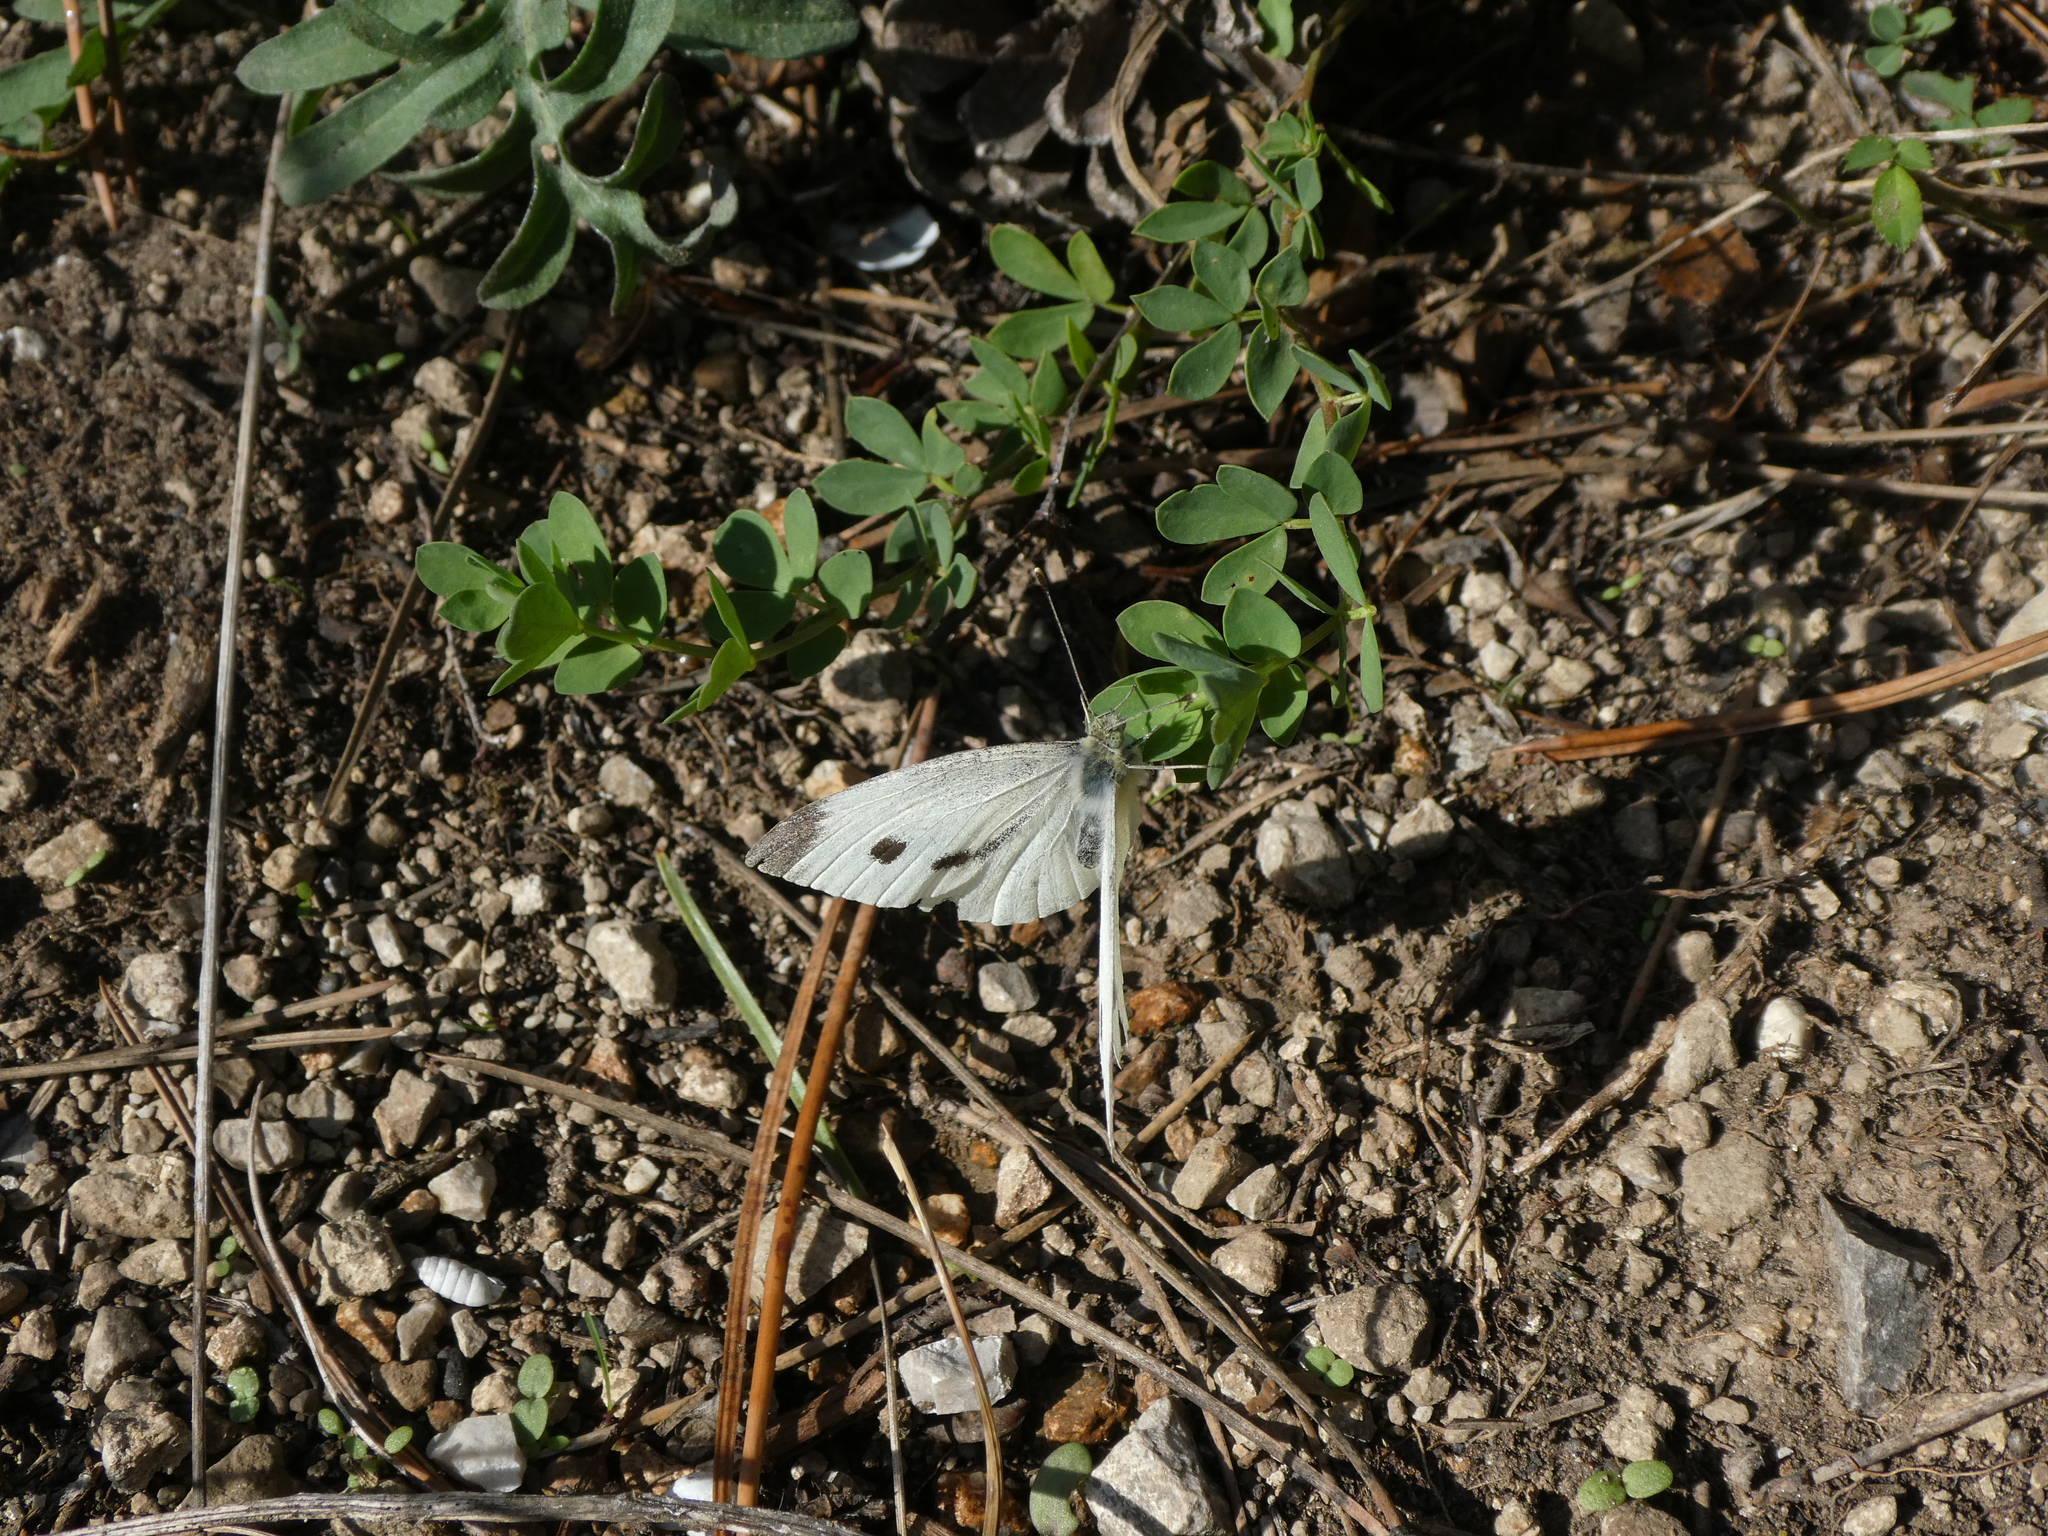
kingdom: Animalia
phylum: Arthropoda
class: Insecta
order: Lepidoptera
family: Pieridae
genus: Pieris
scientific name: Pieris rapae
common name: Small white
